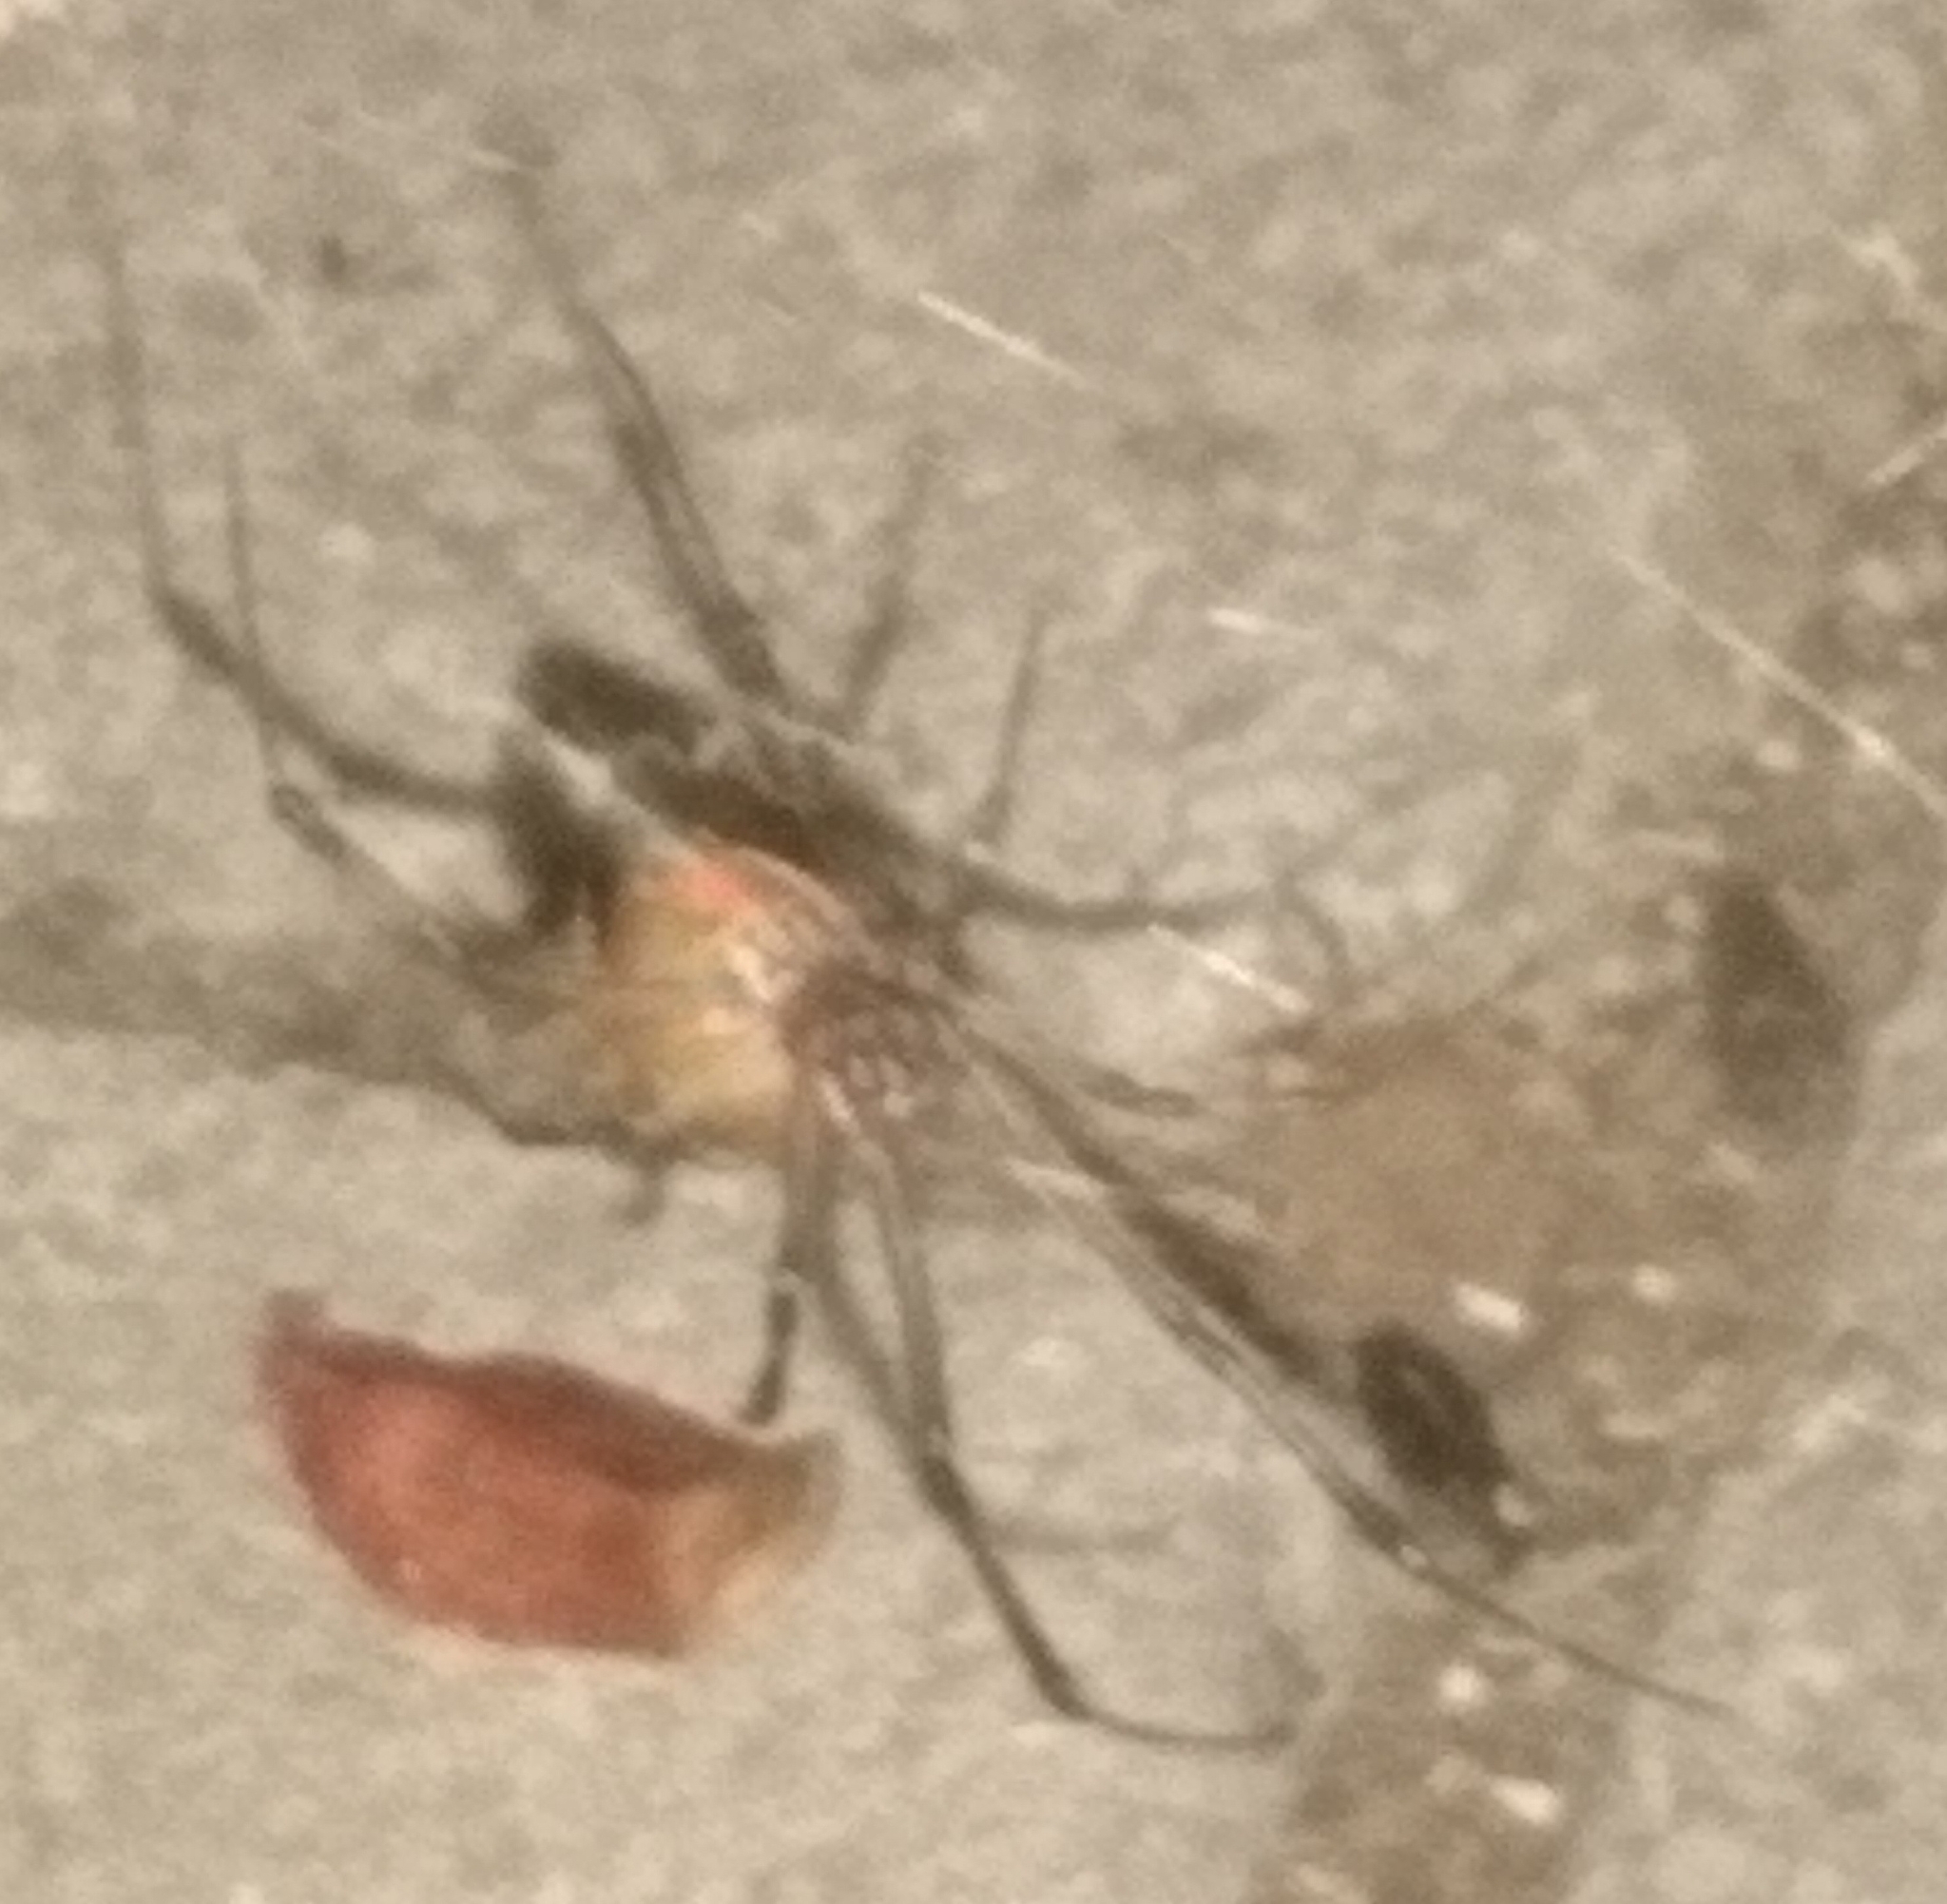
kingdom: Animalia
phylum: Arthropoda
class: Arachnida
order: Araneae
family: Theridiidae
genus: Latrodectus
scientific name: Latrodectus geometricus
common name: Brown widow spider
